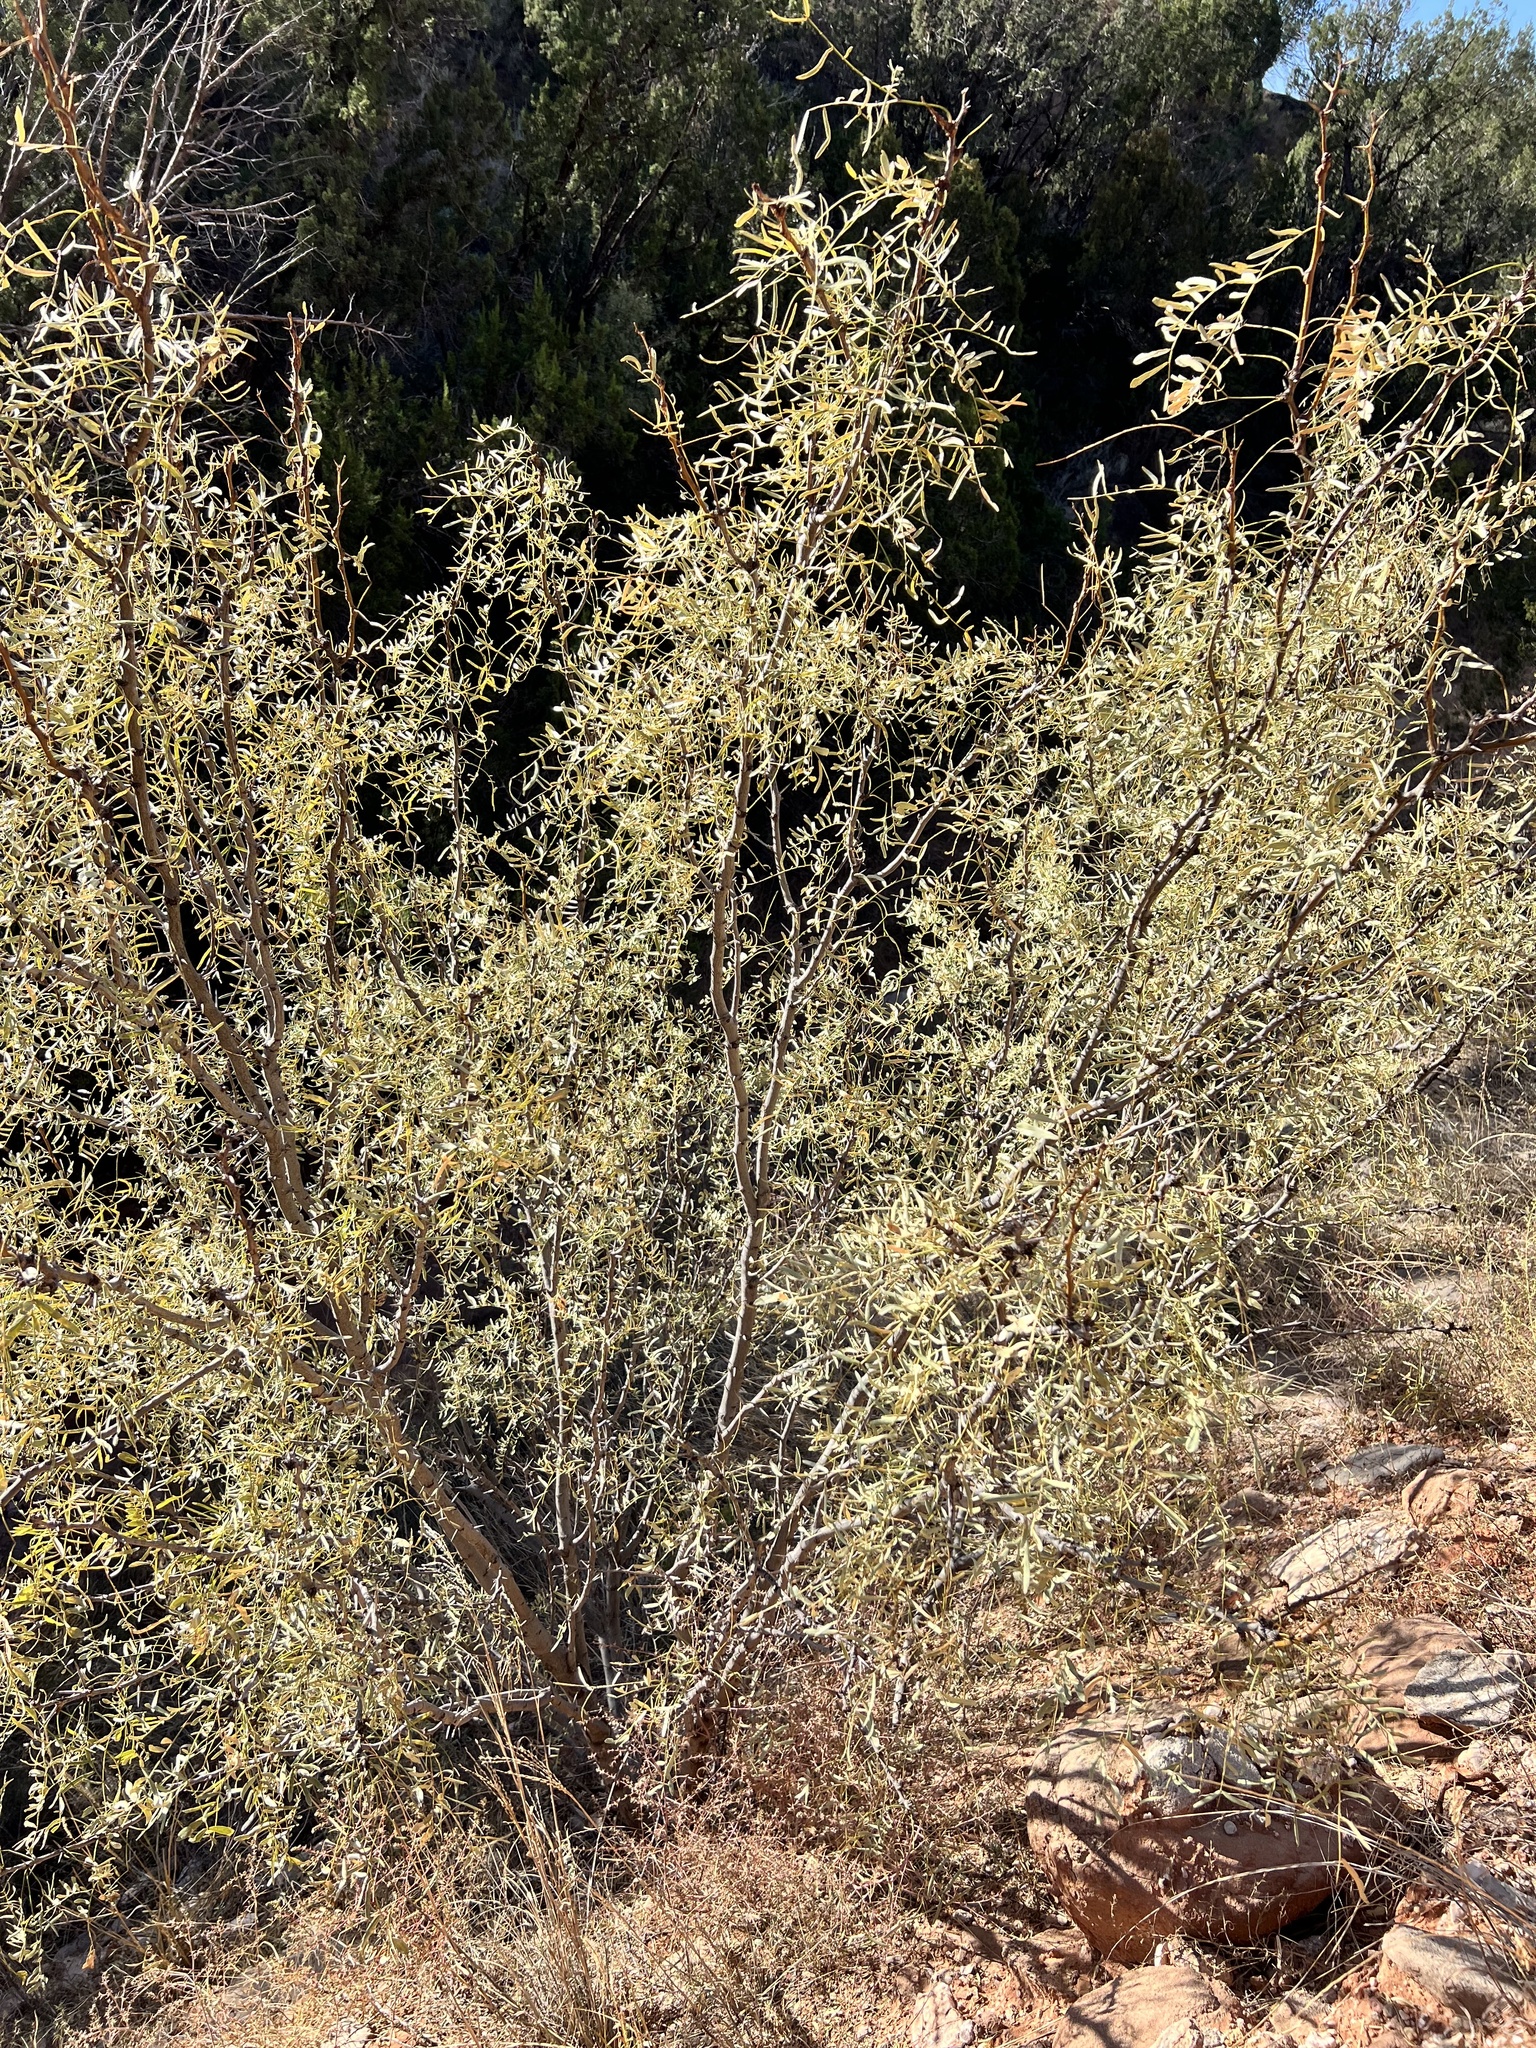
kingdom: Plantae
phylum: Tracheophyta
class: Magnoliopsida
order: Fabales
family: Fabaceae
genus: Prosopis
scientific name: Prosopis glandulosa
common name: Honey mesquite
